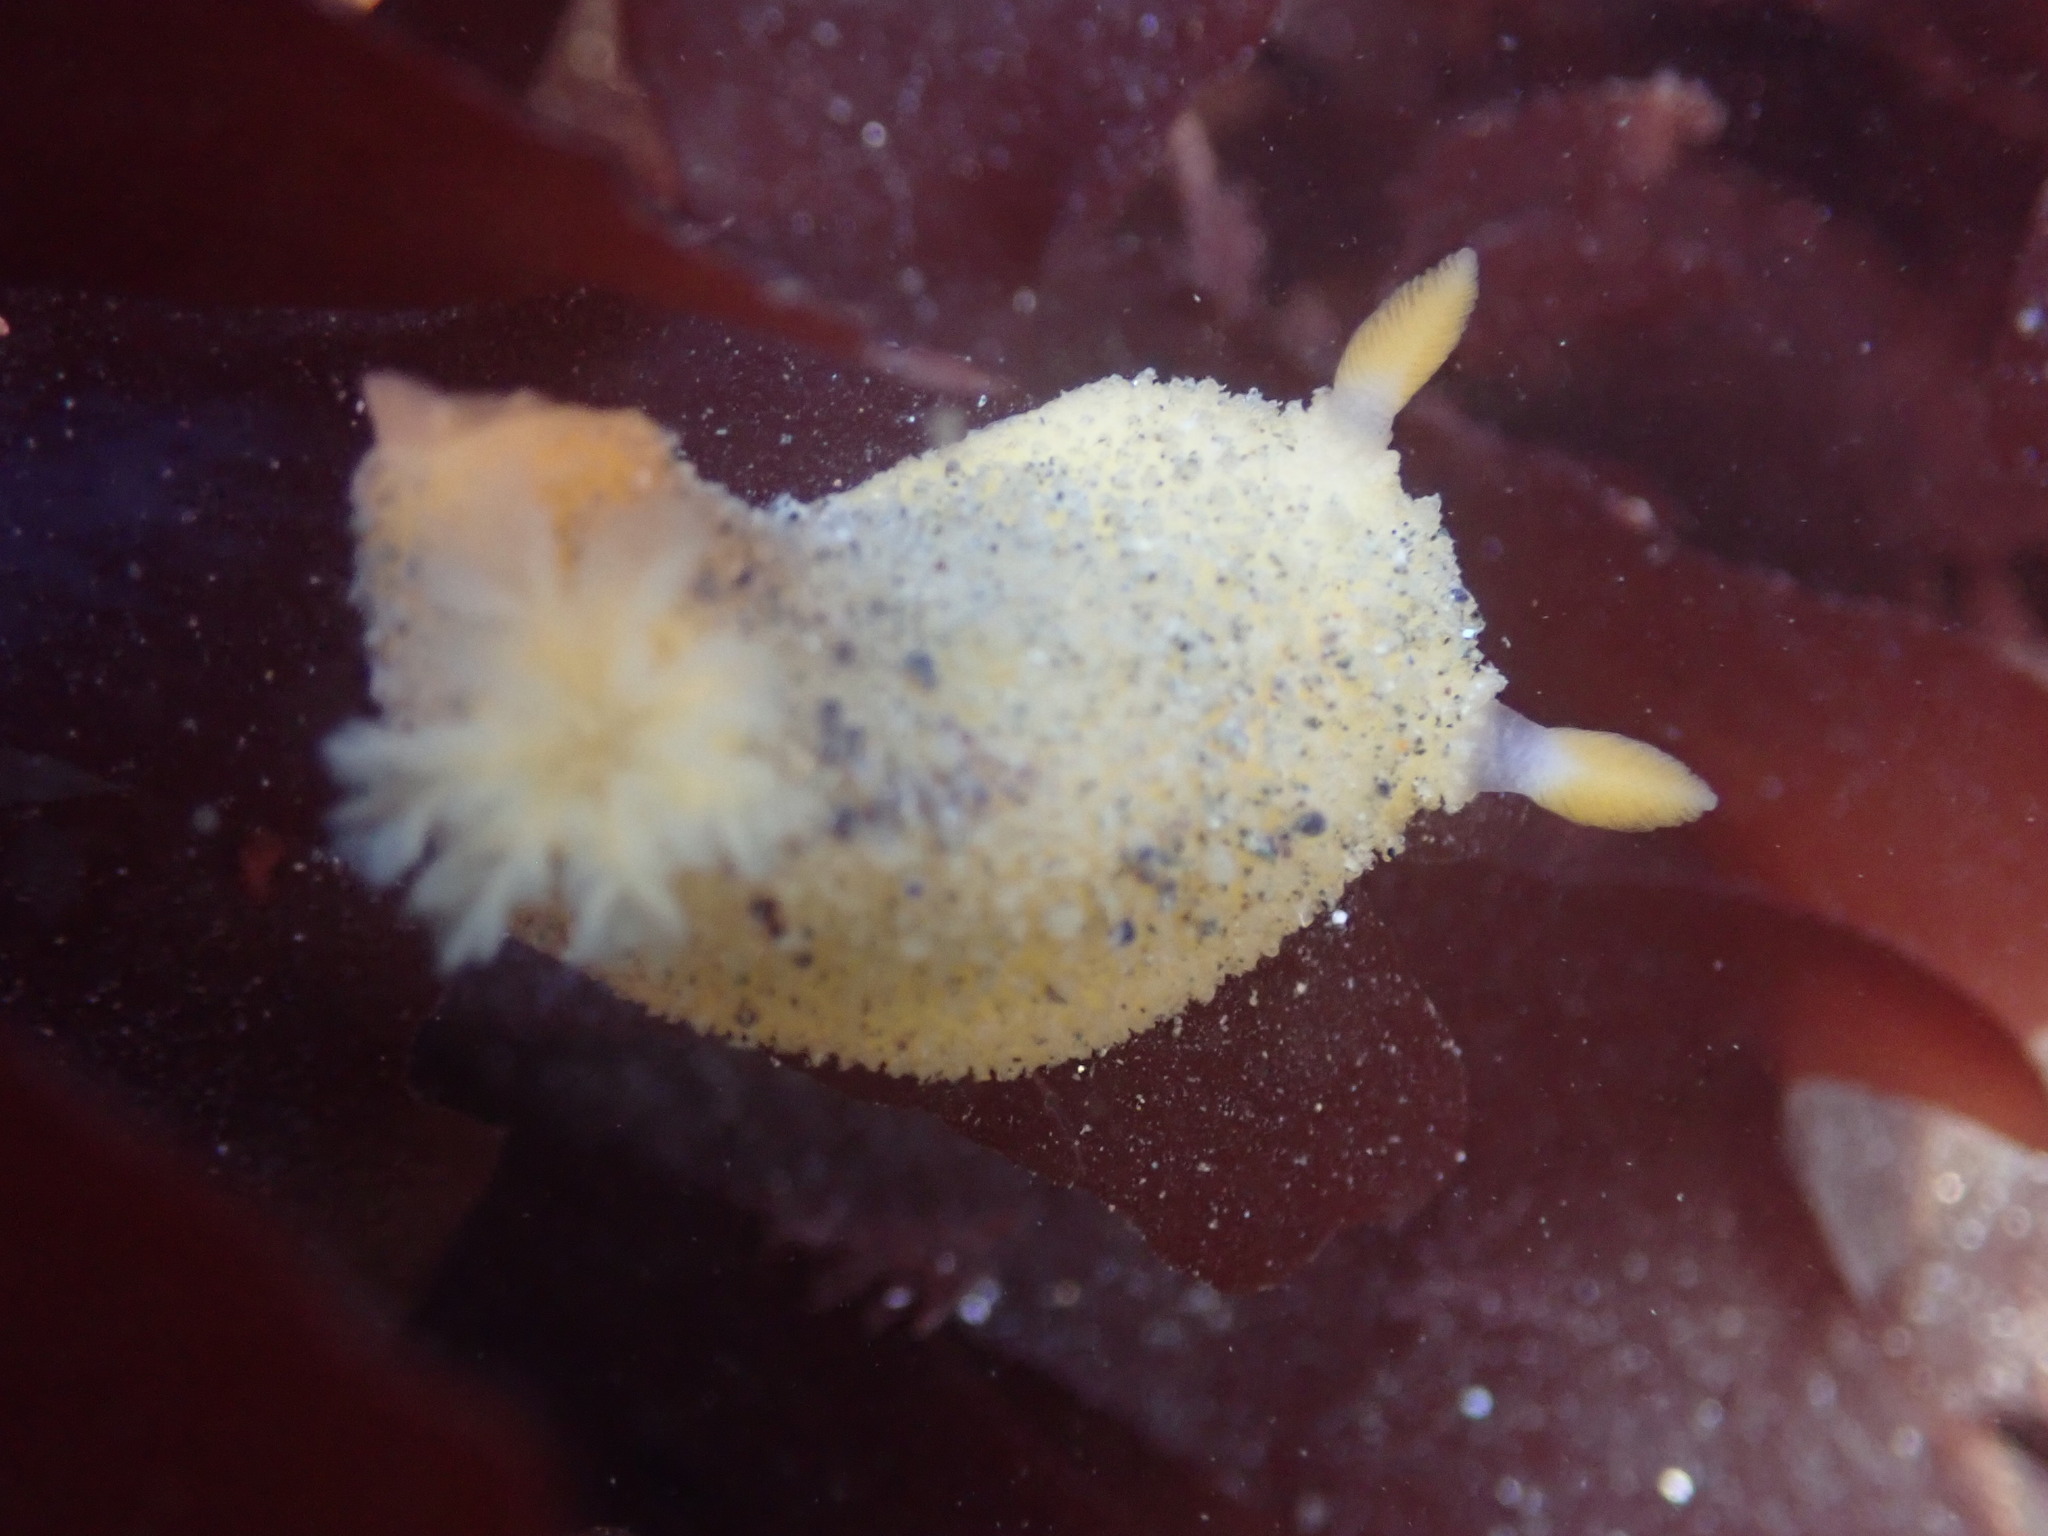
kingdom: Animalia
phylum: Mollusca
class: Gastropoda
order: Nudibranchia
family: Dorididae
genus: Doris
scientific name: Doris montereyensis
